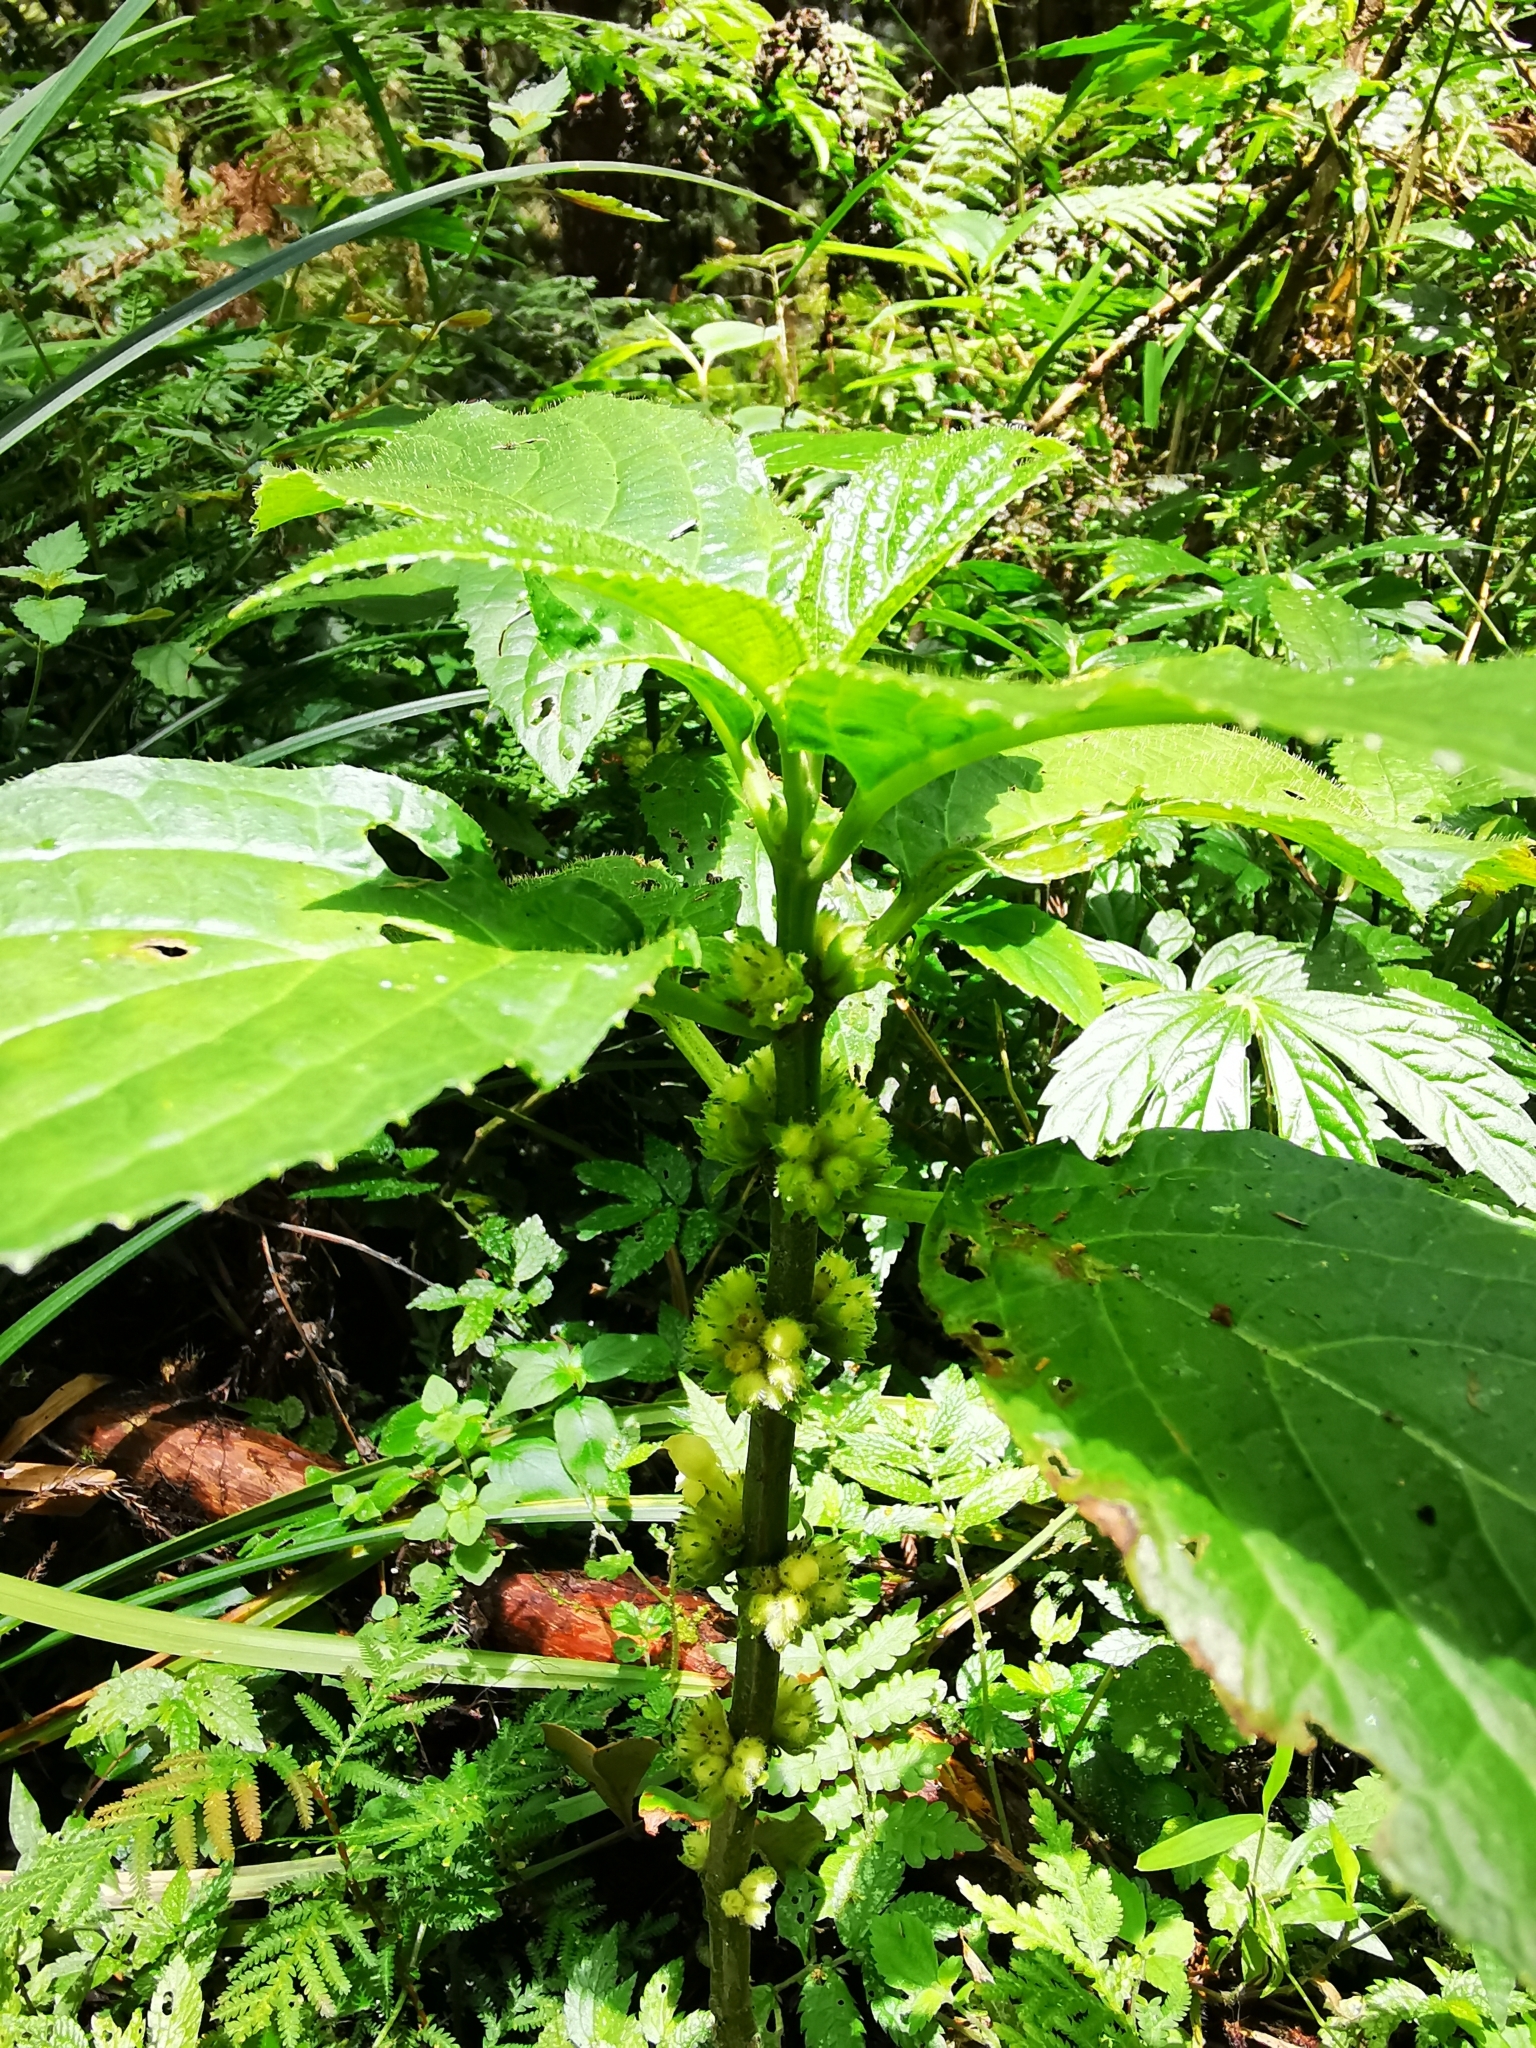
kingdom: Plantae
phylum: Tracheophyta
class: Magnoliopsida
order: Lamiales
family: Lamiaceae
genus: Paraphlomis
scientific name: Paraphlomis javanica
